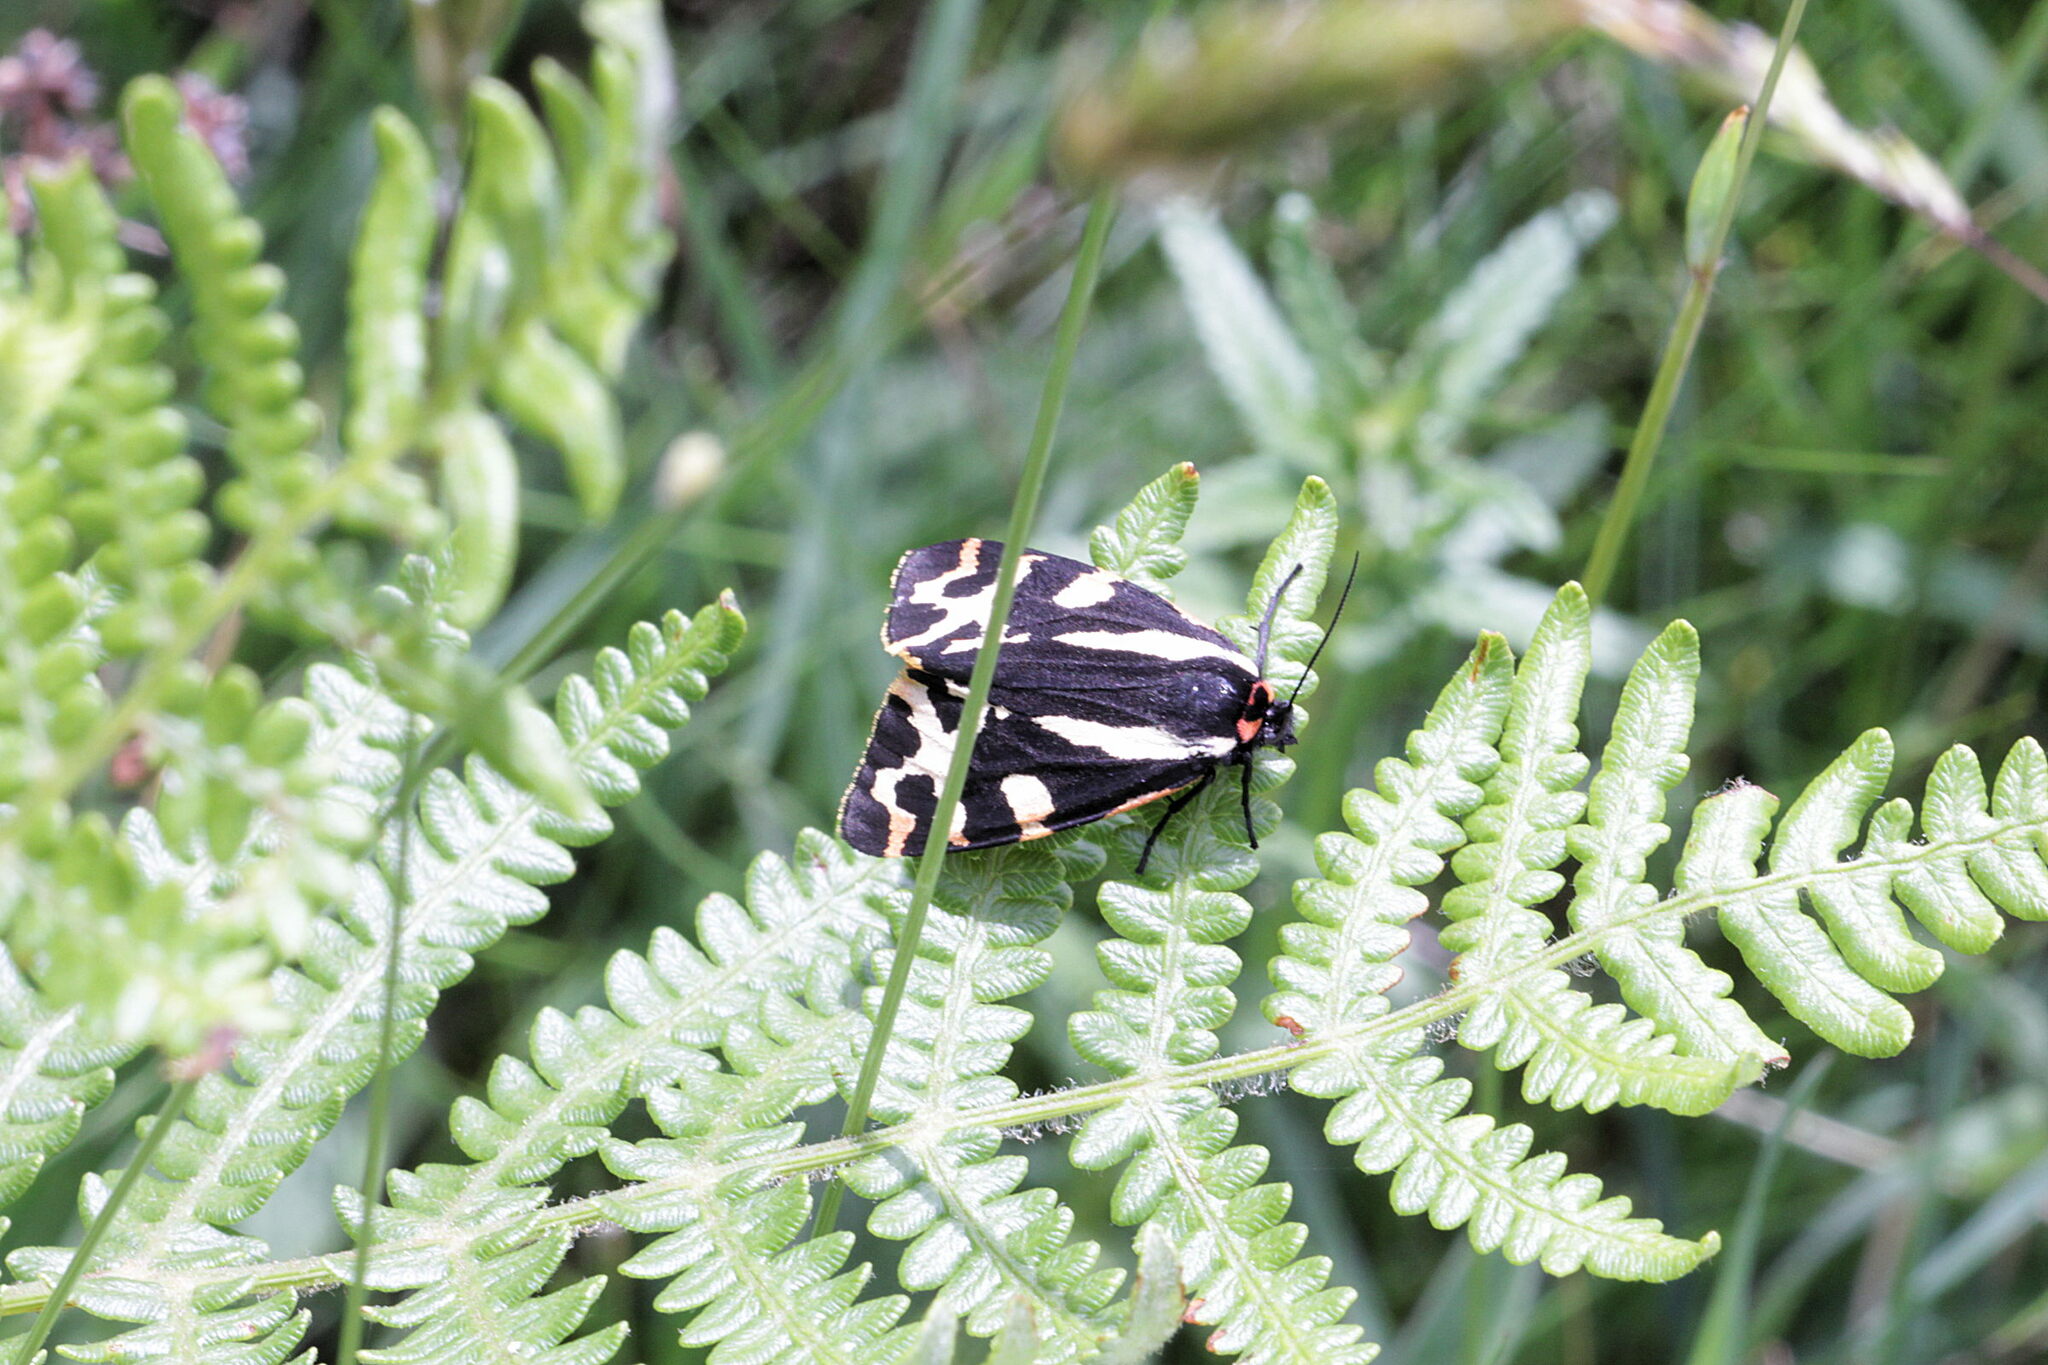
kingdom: Animalia
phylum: Arthropoda
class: Insecta
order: Lepidoptera
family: Erebidae
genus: Parasemia
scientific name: Parasemia plantaginis
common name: Wood tiger
